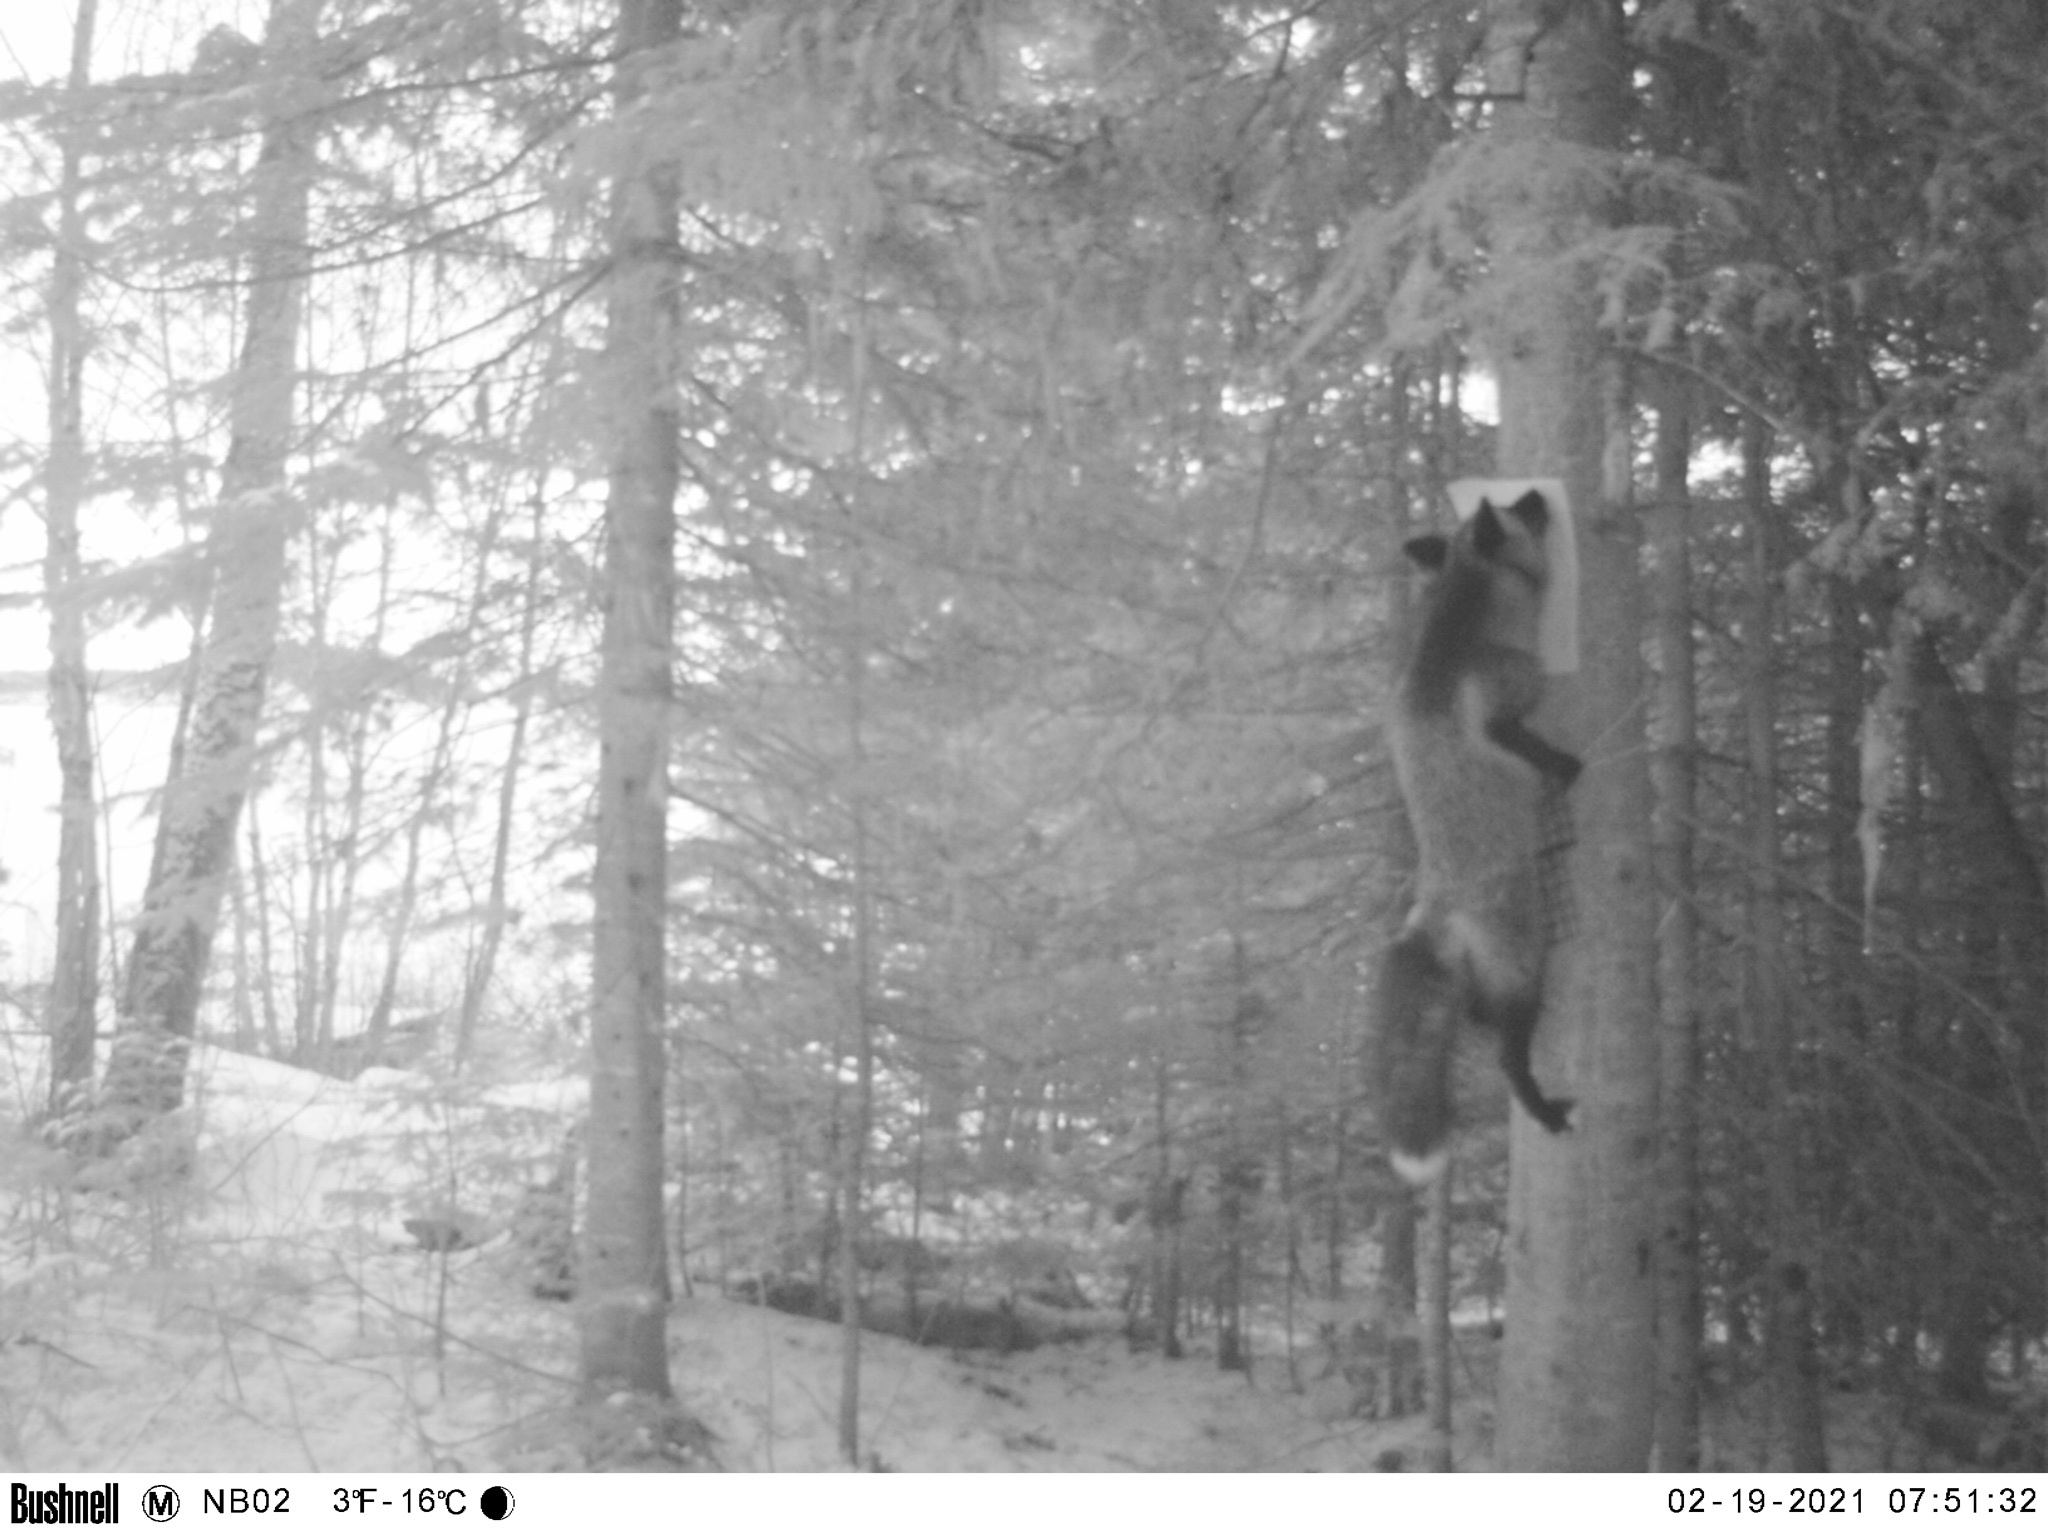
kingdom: Animalia
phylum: Chordata
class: Mammalia
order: Carnivora
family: Canidae
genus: Vulpes
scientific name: Vulpes vulpes
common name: Red fox
